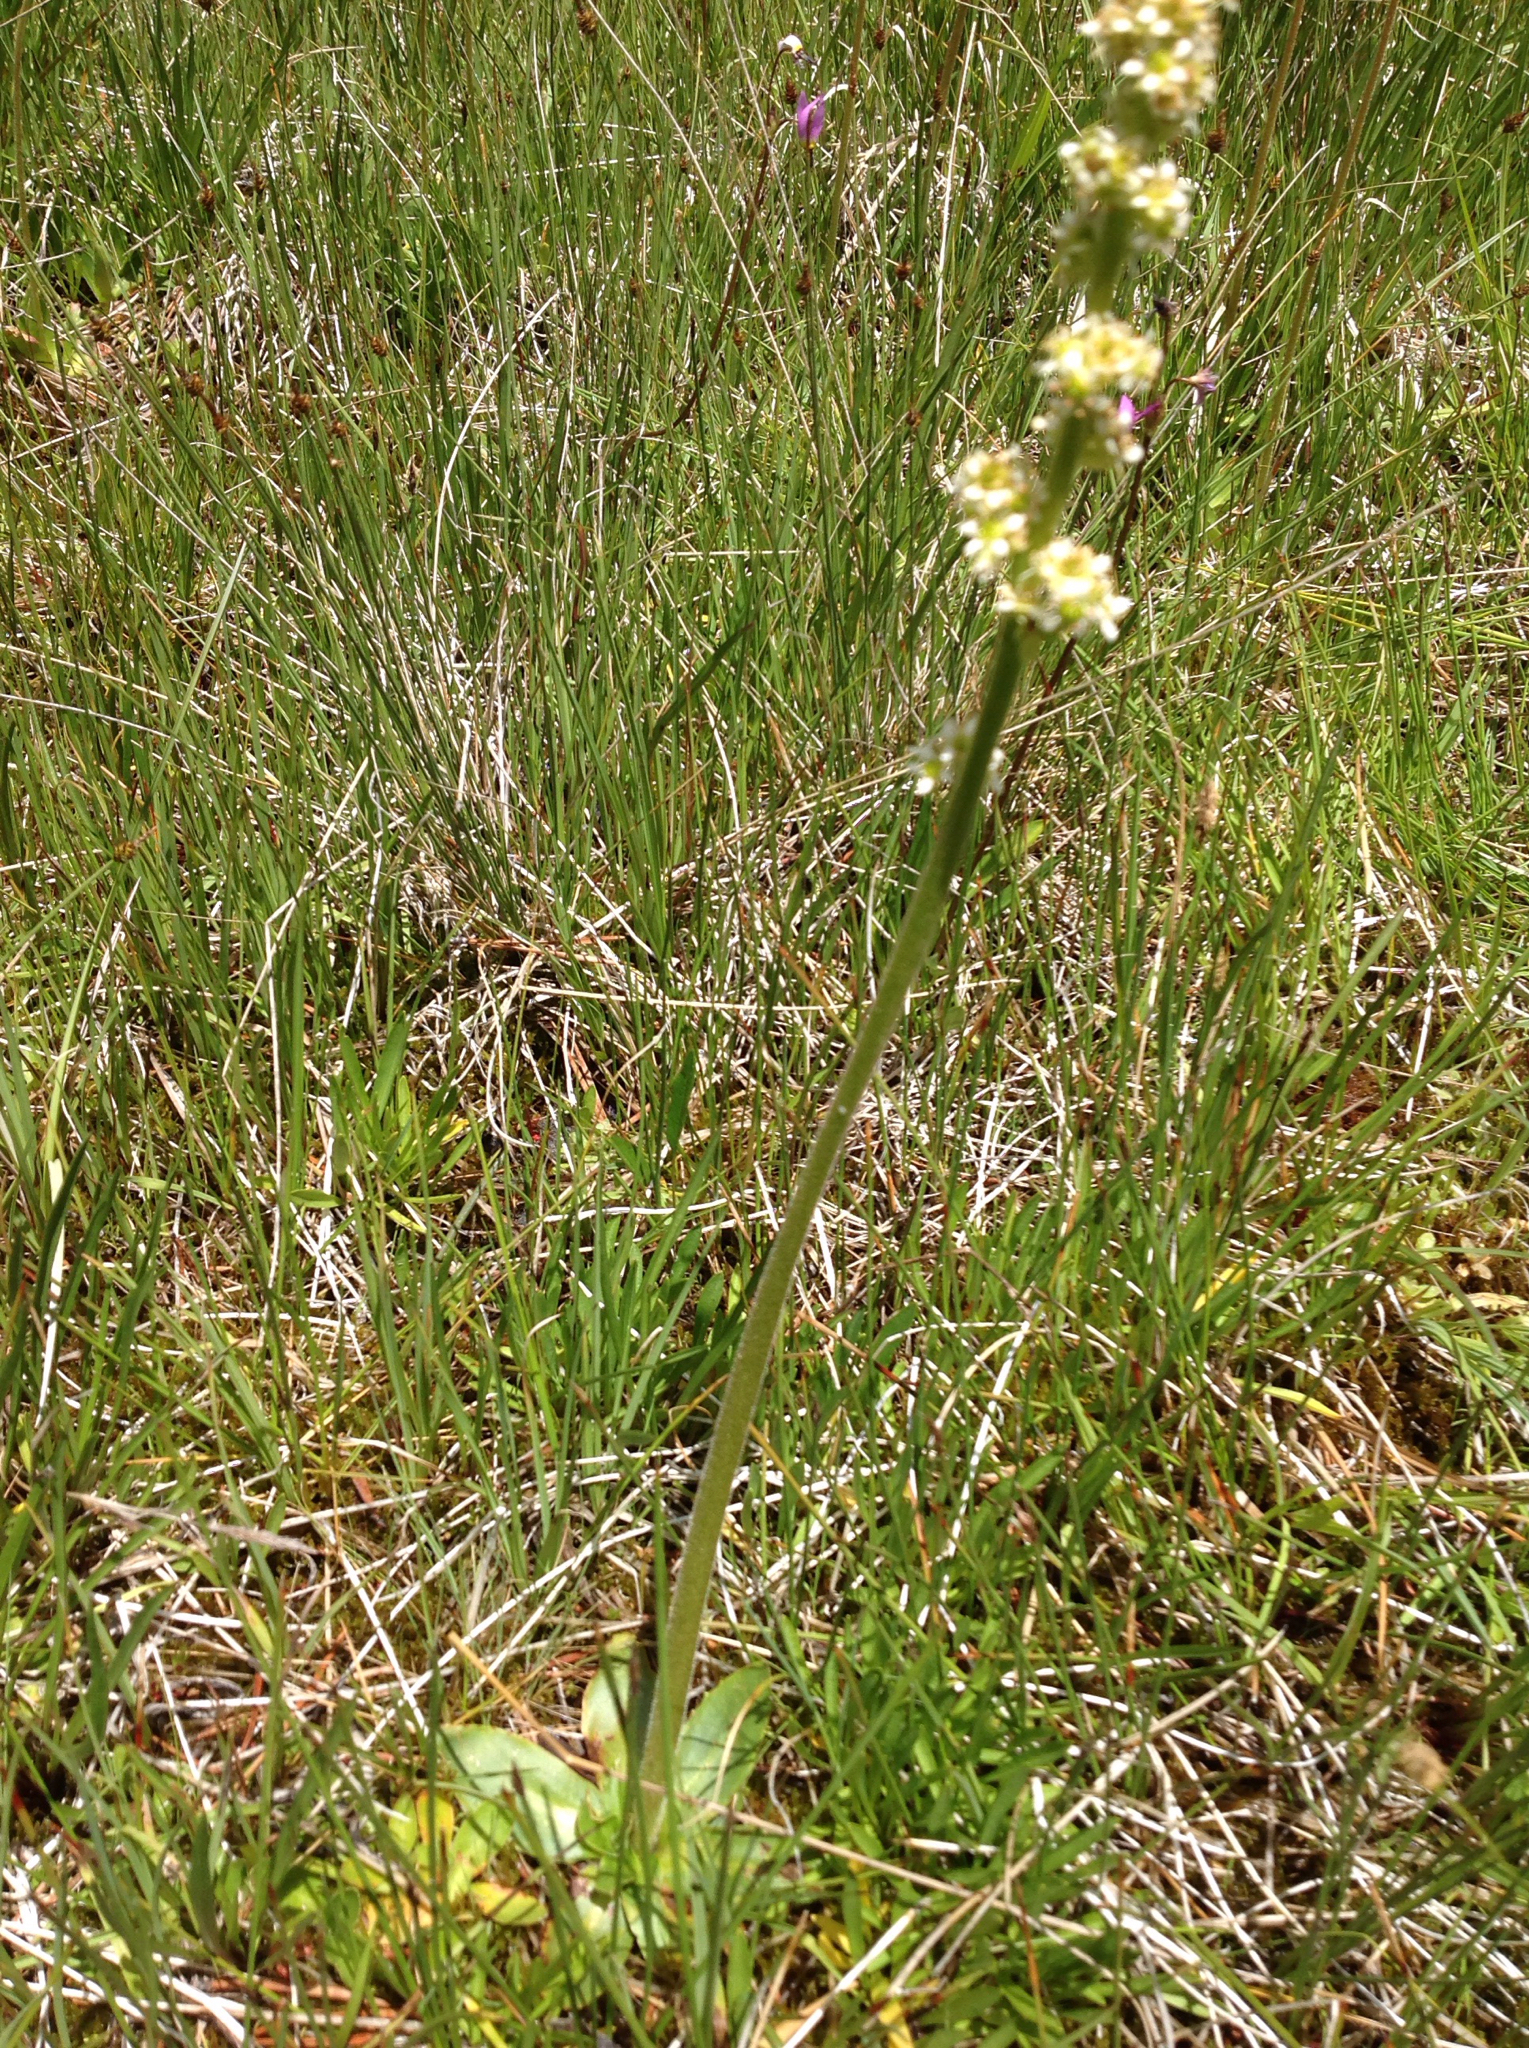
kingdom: Plantae
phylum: Tracheophyta
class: Magnoliopsida
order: Saxifragales
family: Saxifragaceae
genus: Micranthes
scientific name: Micranthes oregana
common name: Bog saxifrage
